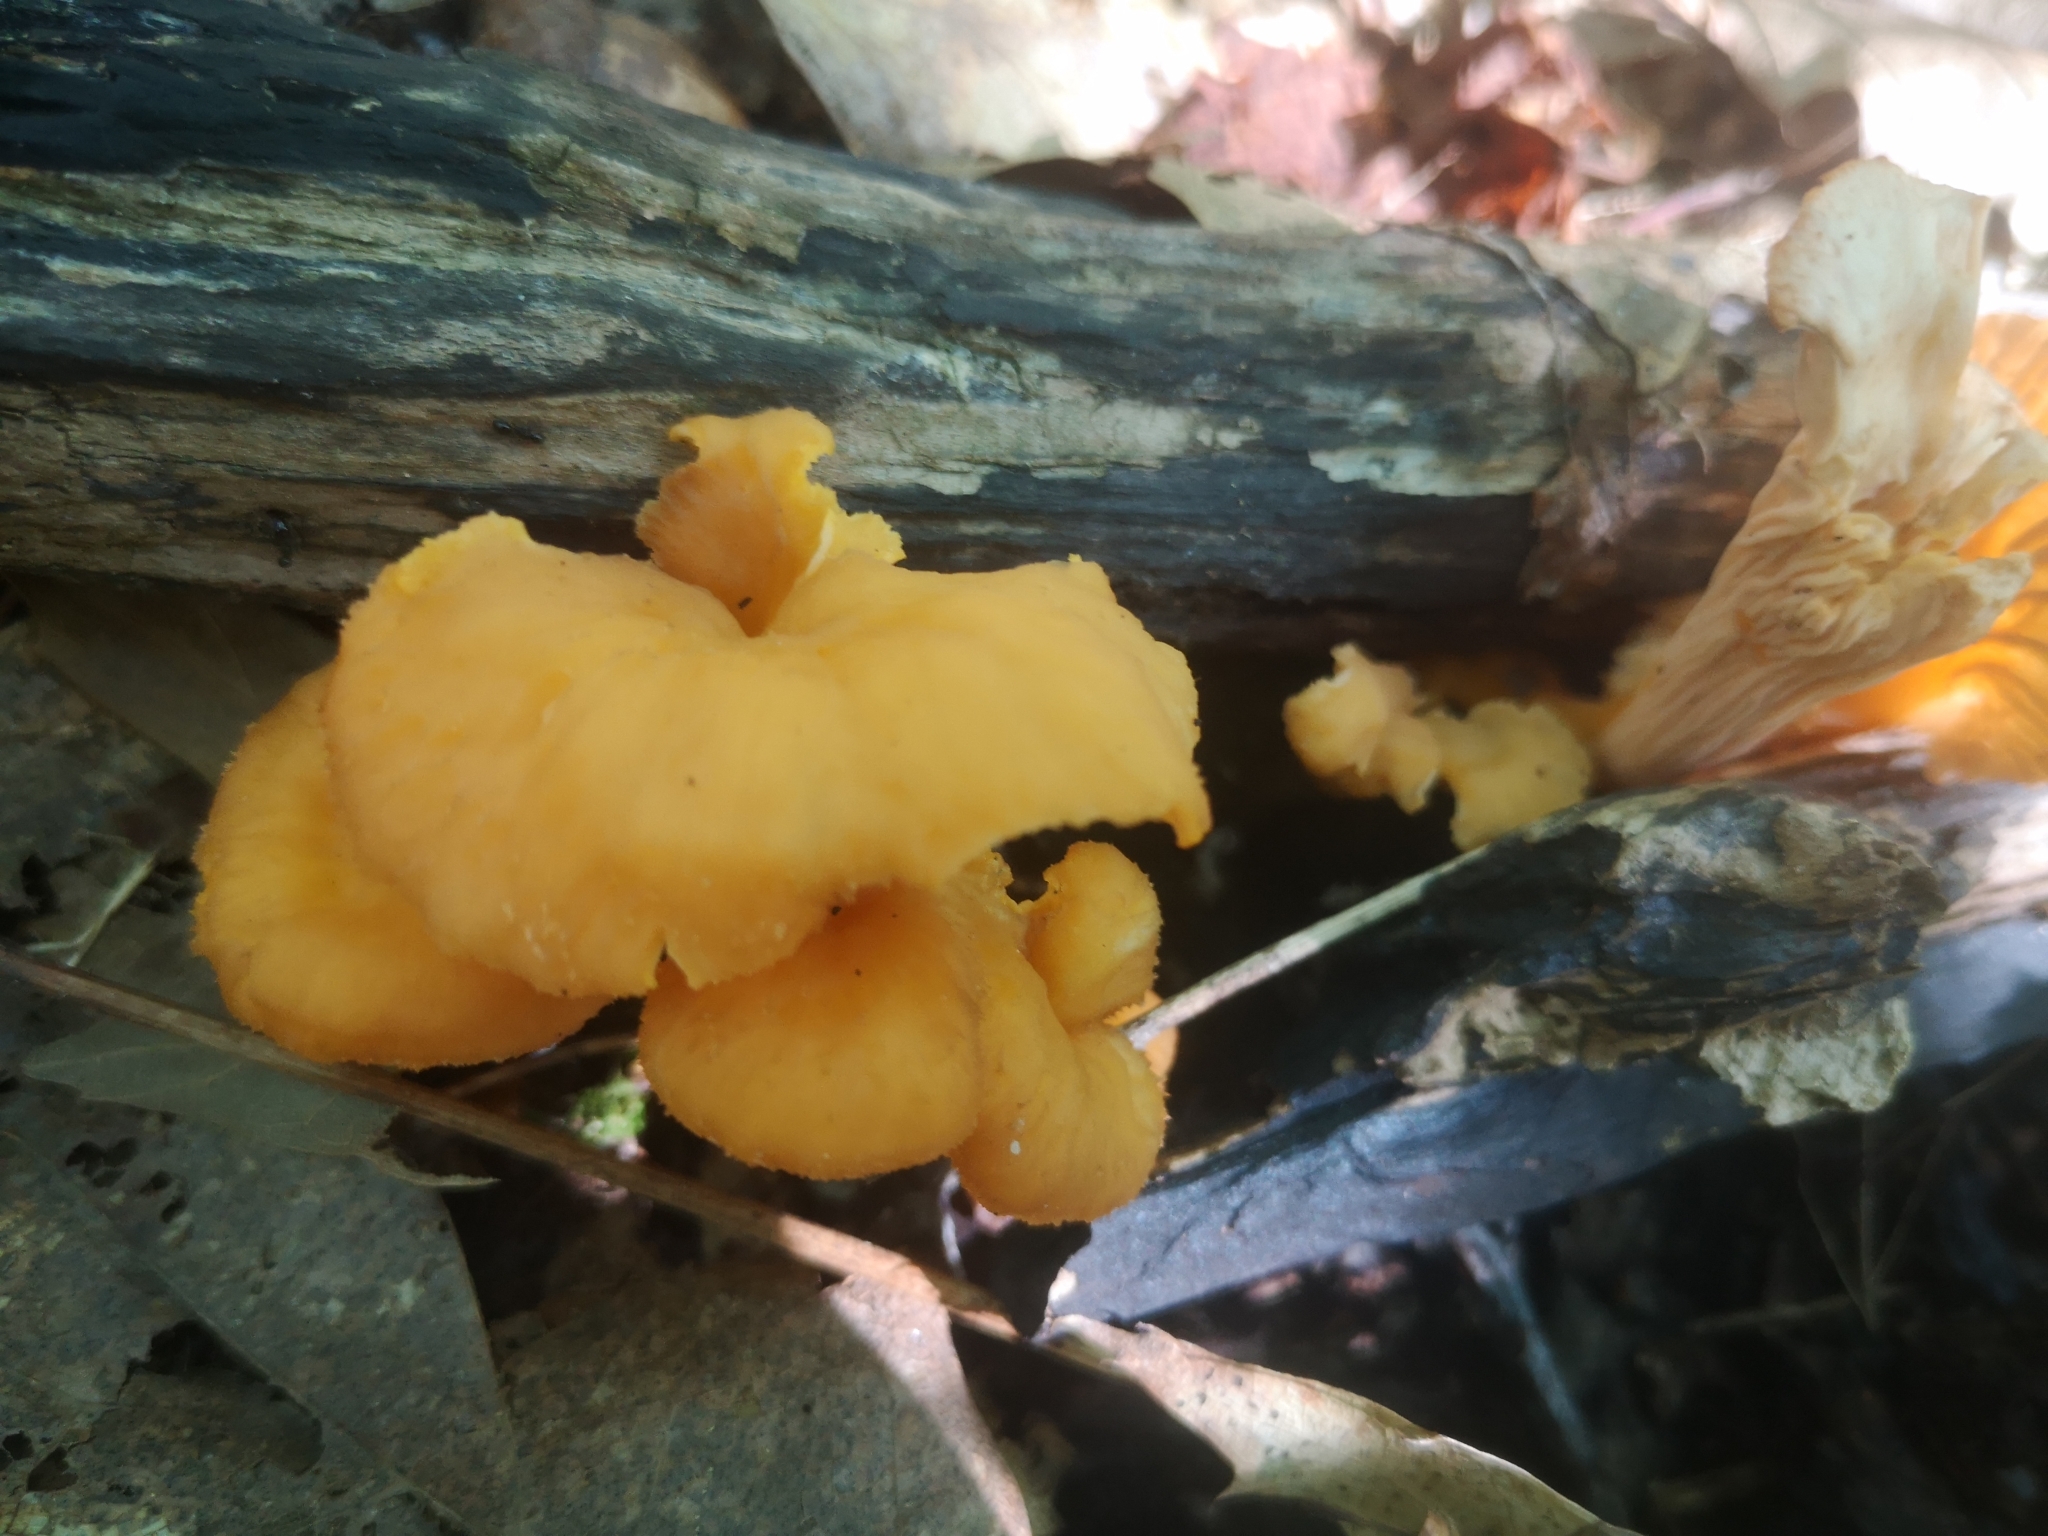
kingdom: Fungi
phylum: Basidiomycota
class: Agaricomycetes
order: Cantharellales
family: Hydnaceae
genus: Craterellus
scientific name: Craterellus ignicolor
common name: Flame chanterelle
